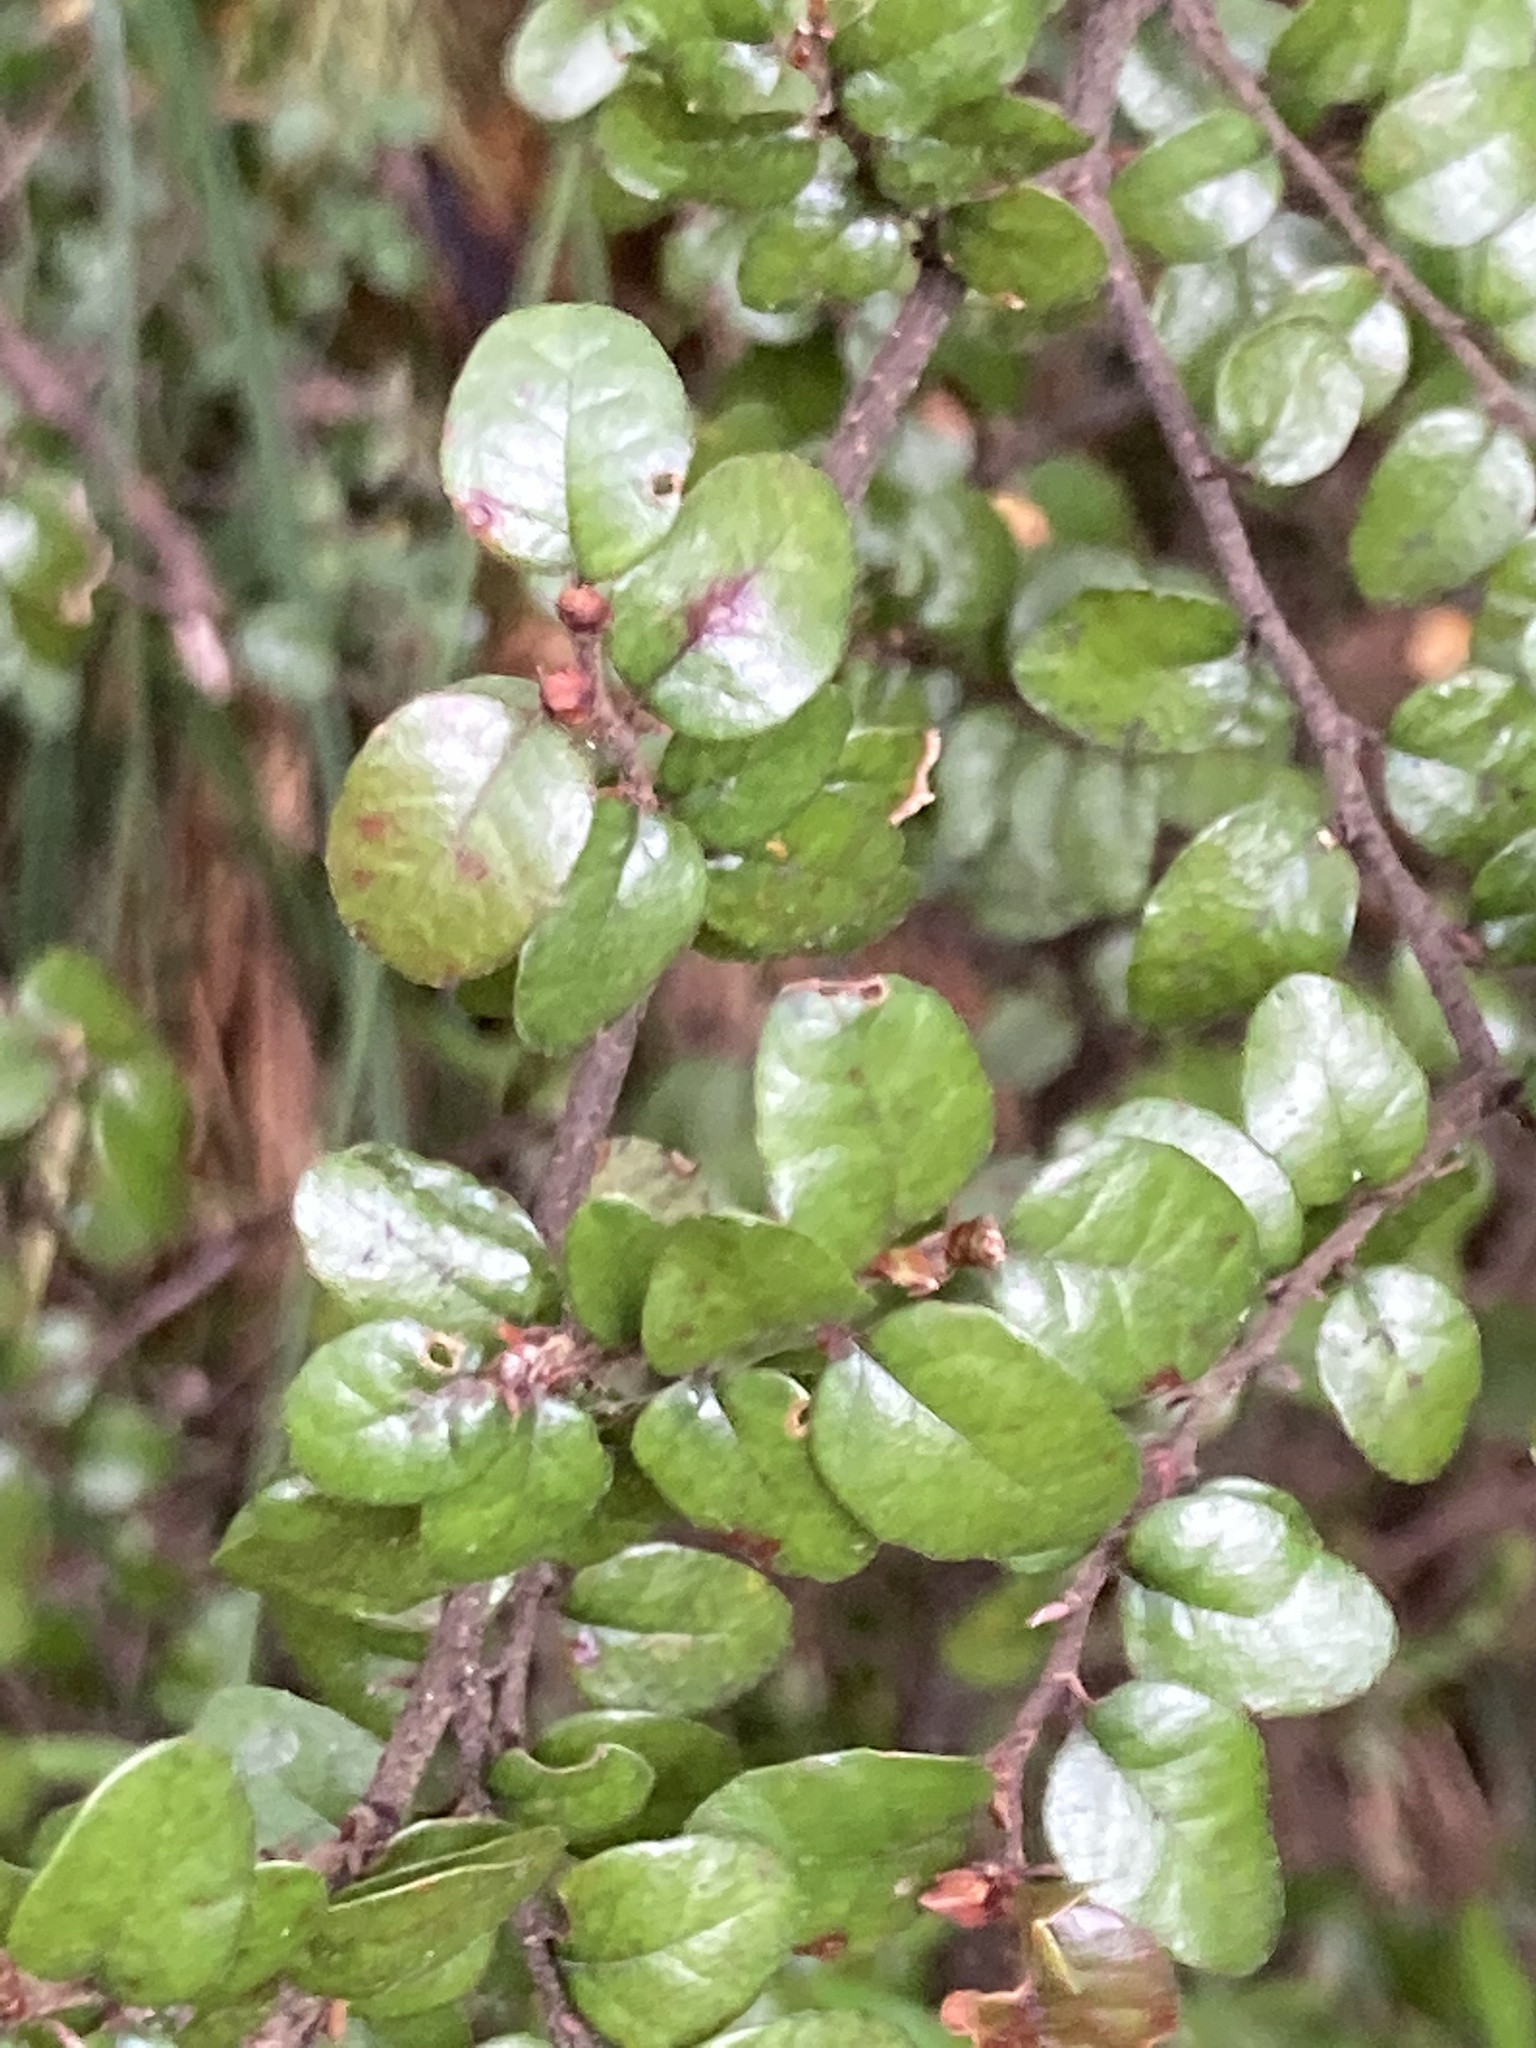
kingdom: Plantae
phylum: Tracheophyta
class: Magnoliopsida
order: Fagales
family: Nothofagaceae
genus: Nothofagus
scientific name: Nothofagus cliffortioides
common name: Mountain beech
